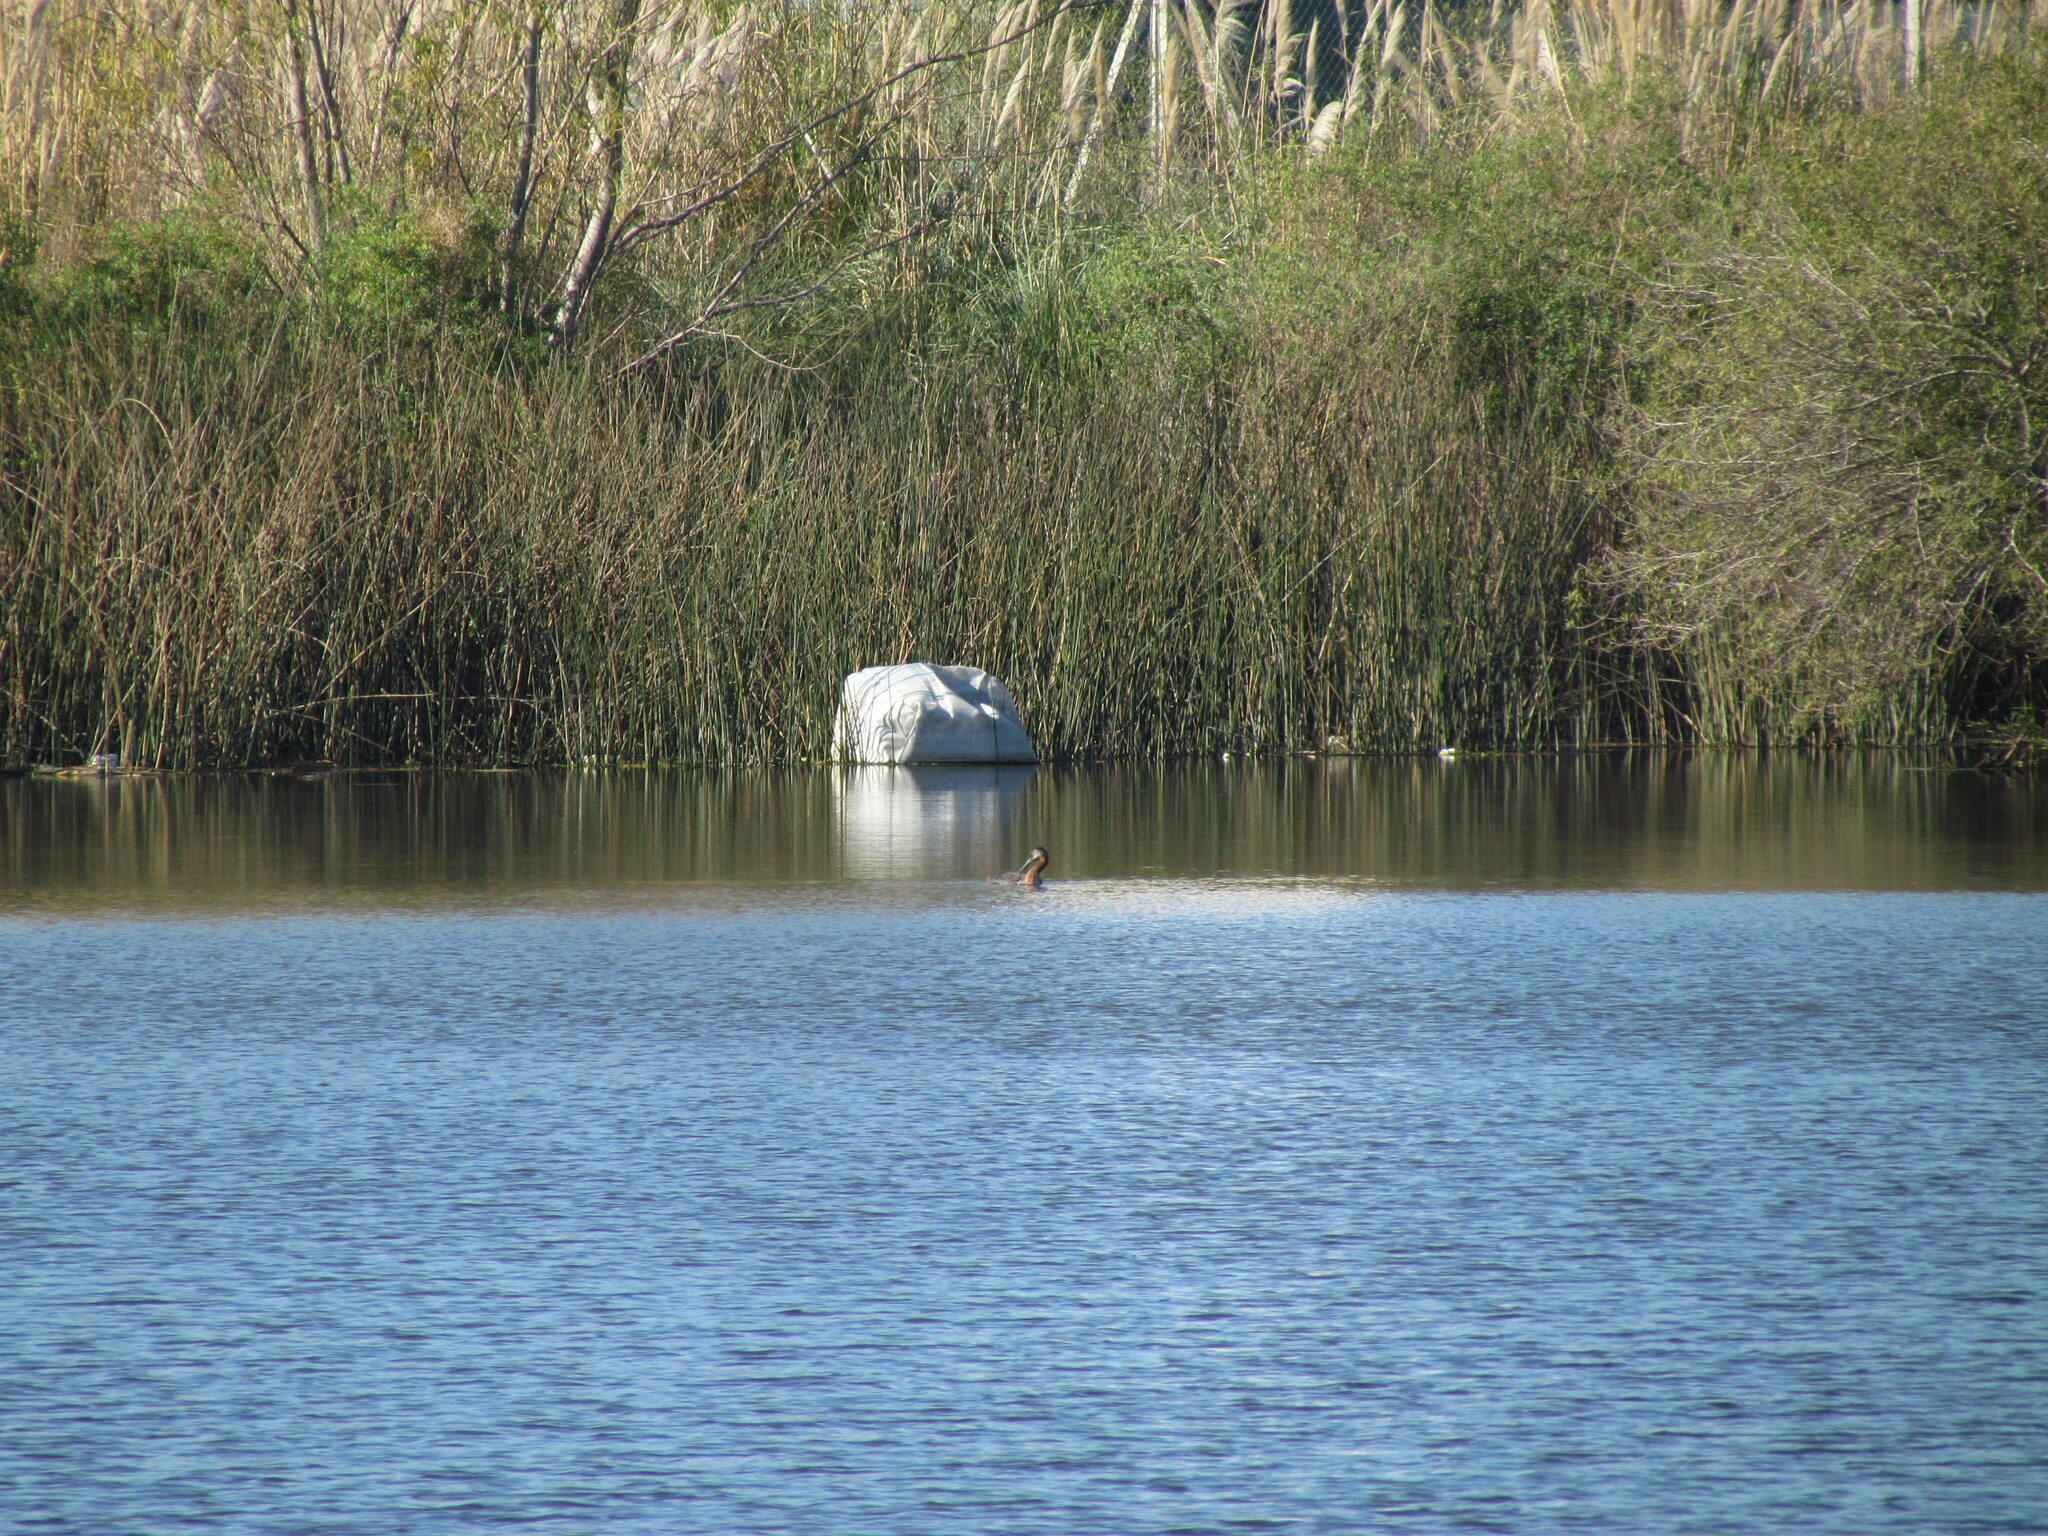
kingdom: Animalia
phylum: Chordata
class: Aves
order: Podicipediformes
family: Podicipedidae
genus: Podiceps
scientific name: Podiceps major
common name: Great grebe
